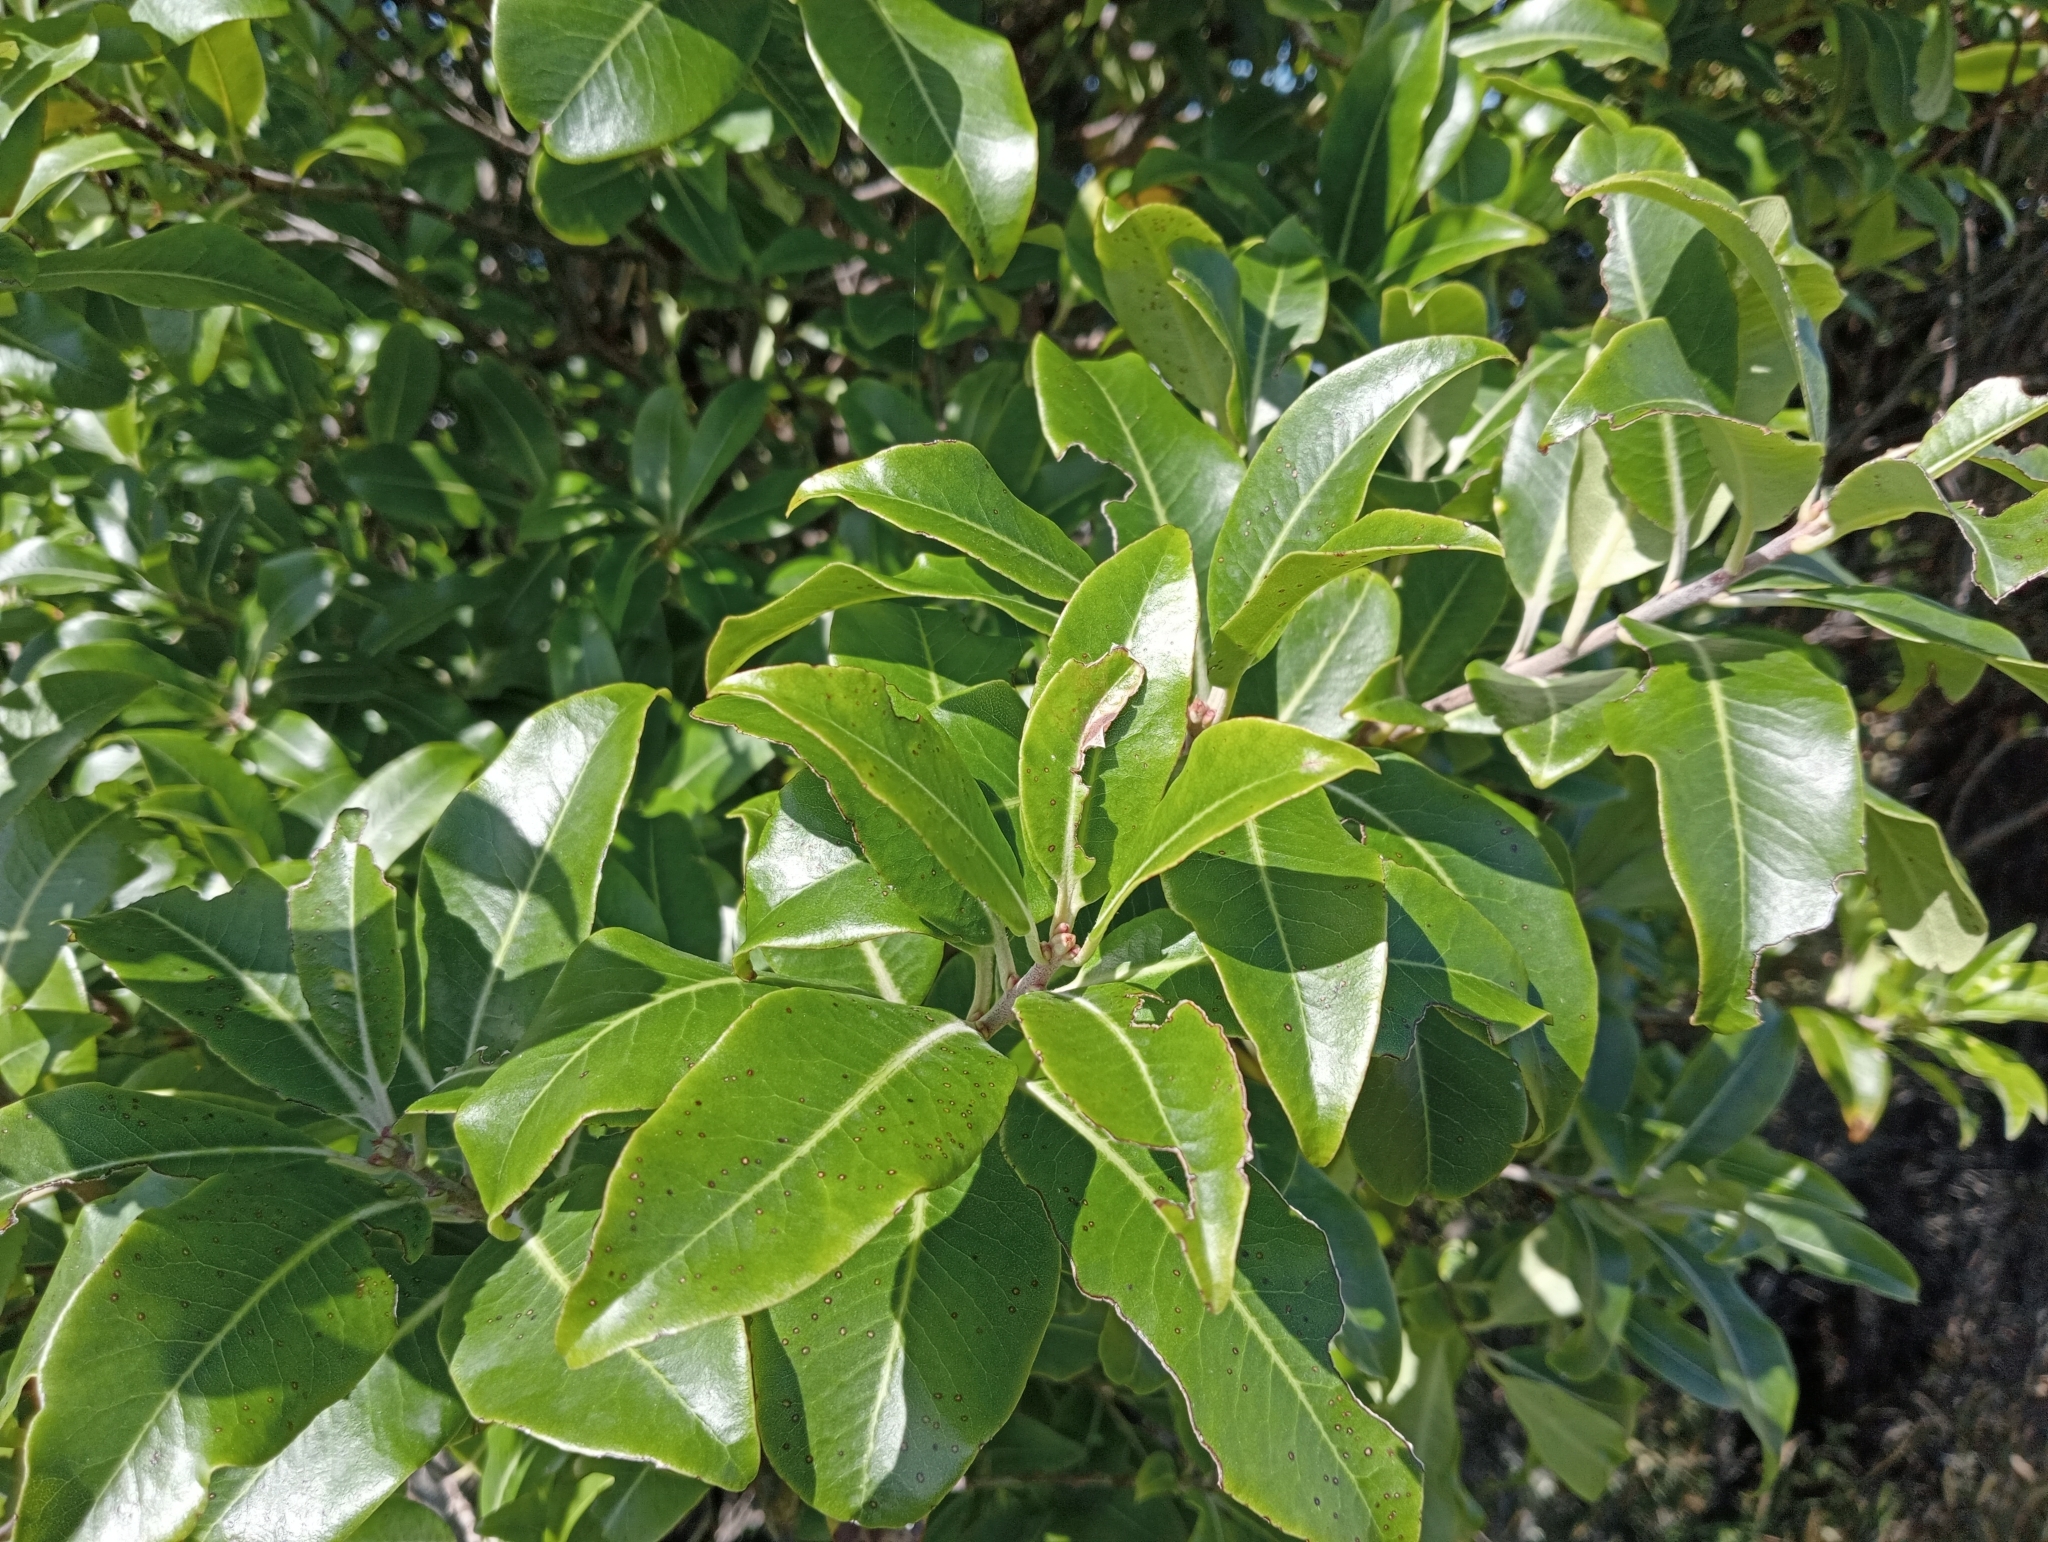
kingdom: Plantae
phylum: Tracheophyta
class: Magnoliopsida
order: Apiales
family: Pittosporaceae
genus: Pittosporum
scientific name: Pittosporum tenuifolium
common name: Kohuhu
